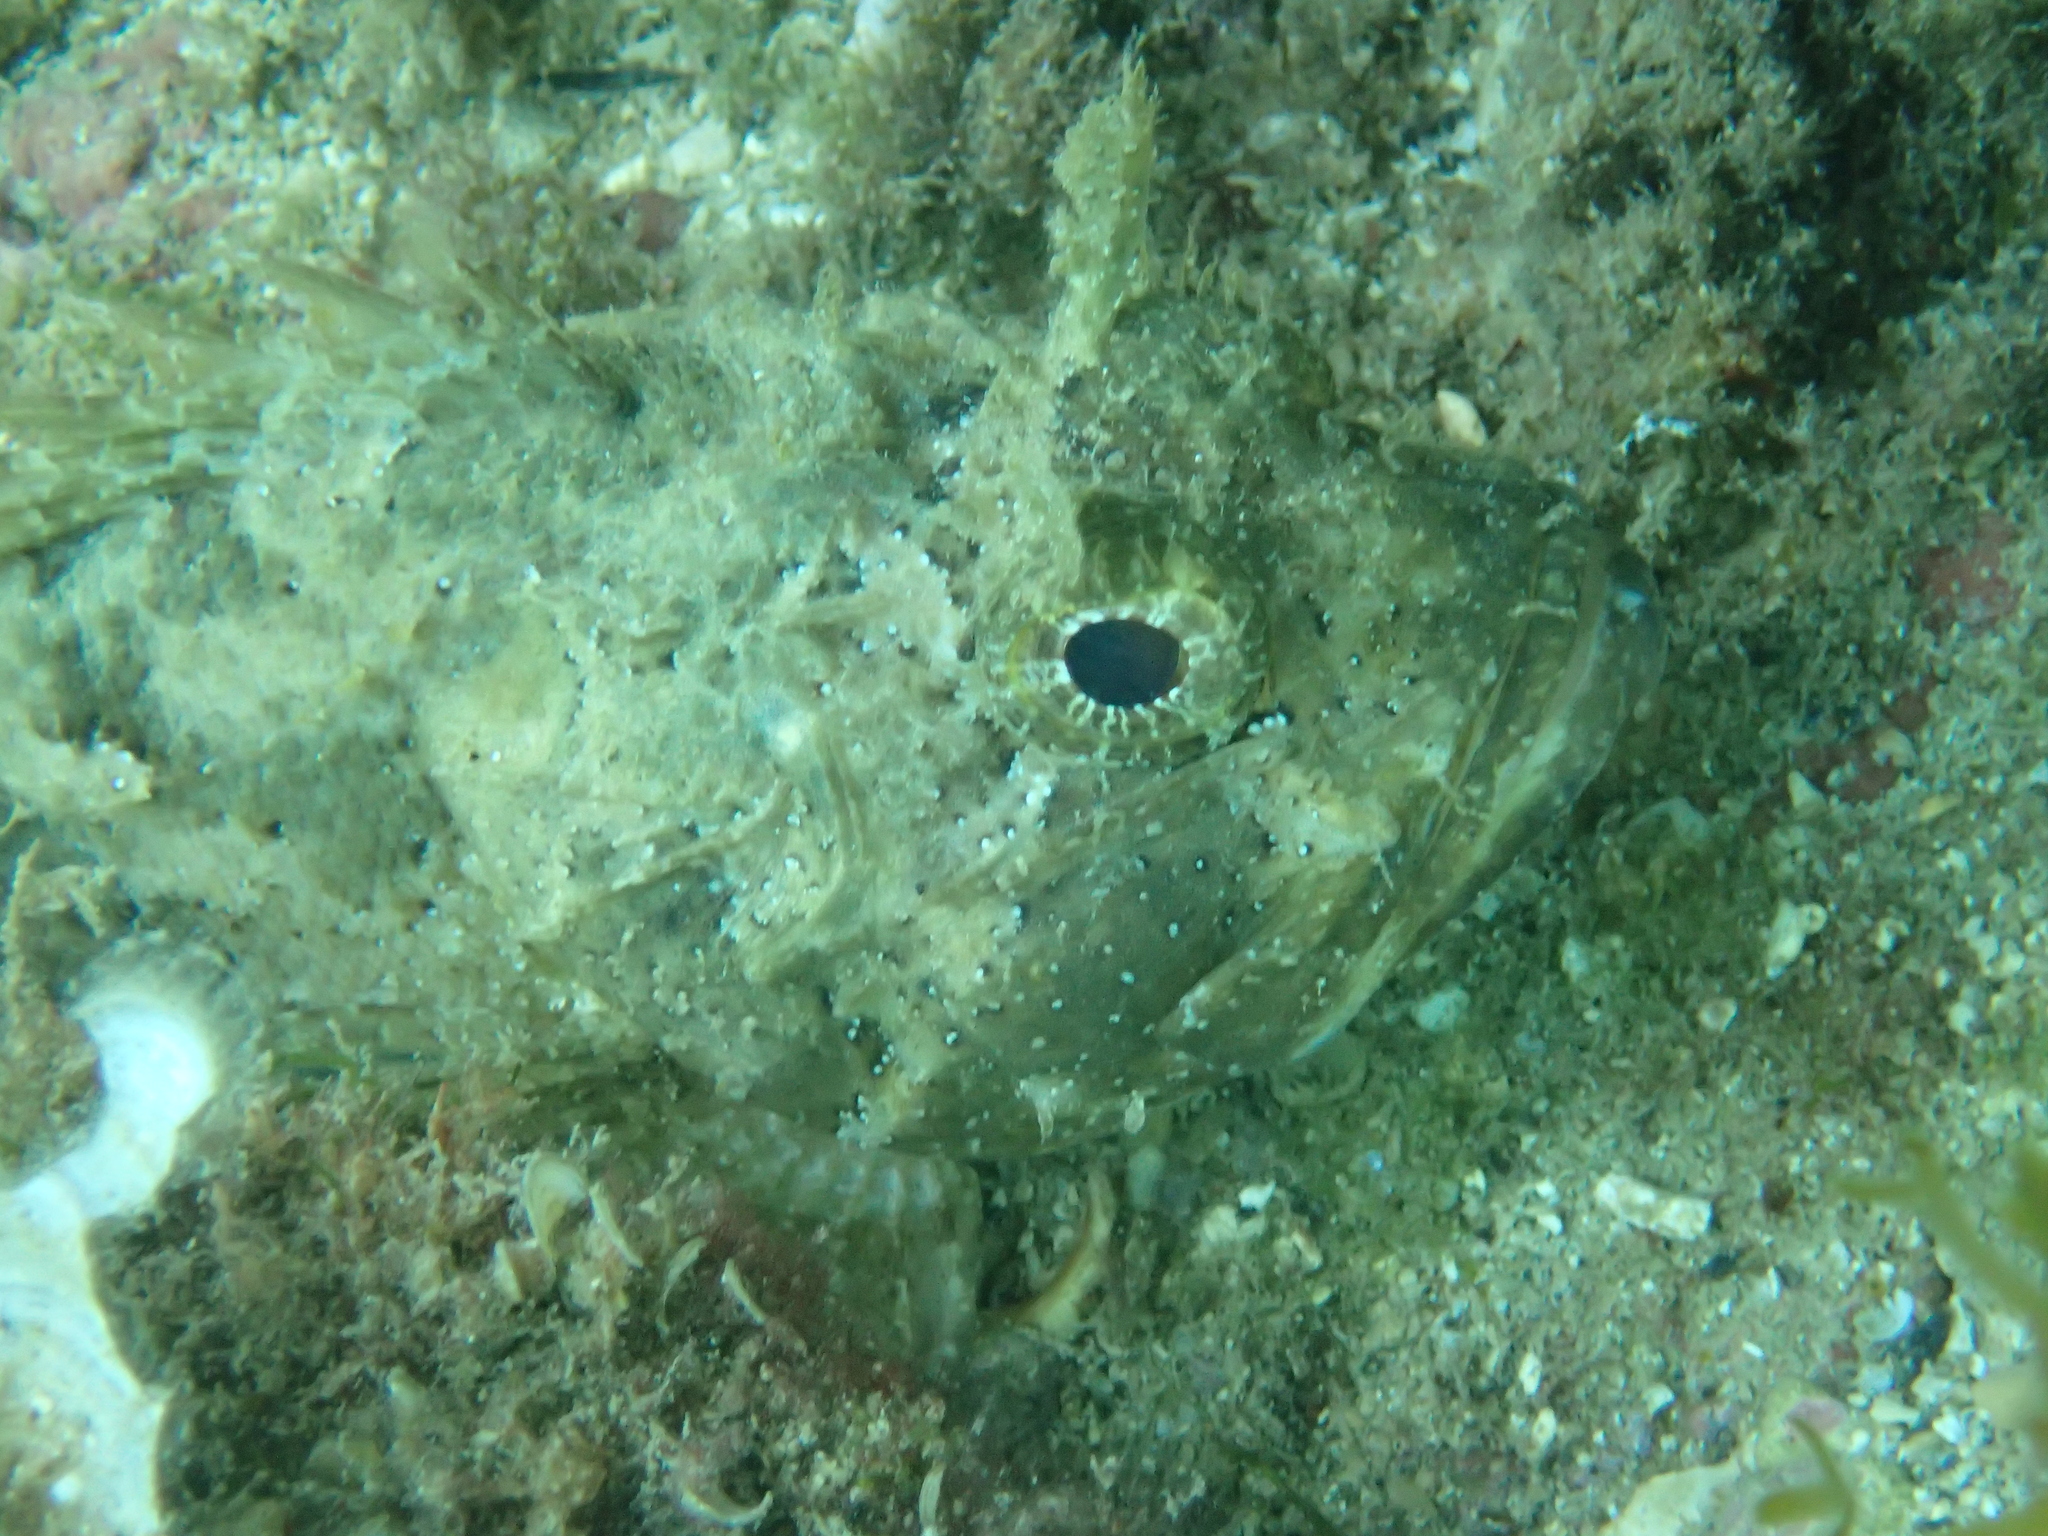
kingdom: Animalia
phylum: Chordata
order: Scorpaeniformes
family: Scorpaenidae
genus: Scorpaena
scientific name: Scorpaena porcus
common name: Black scorpionfish
